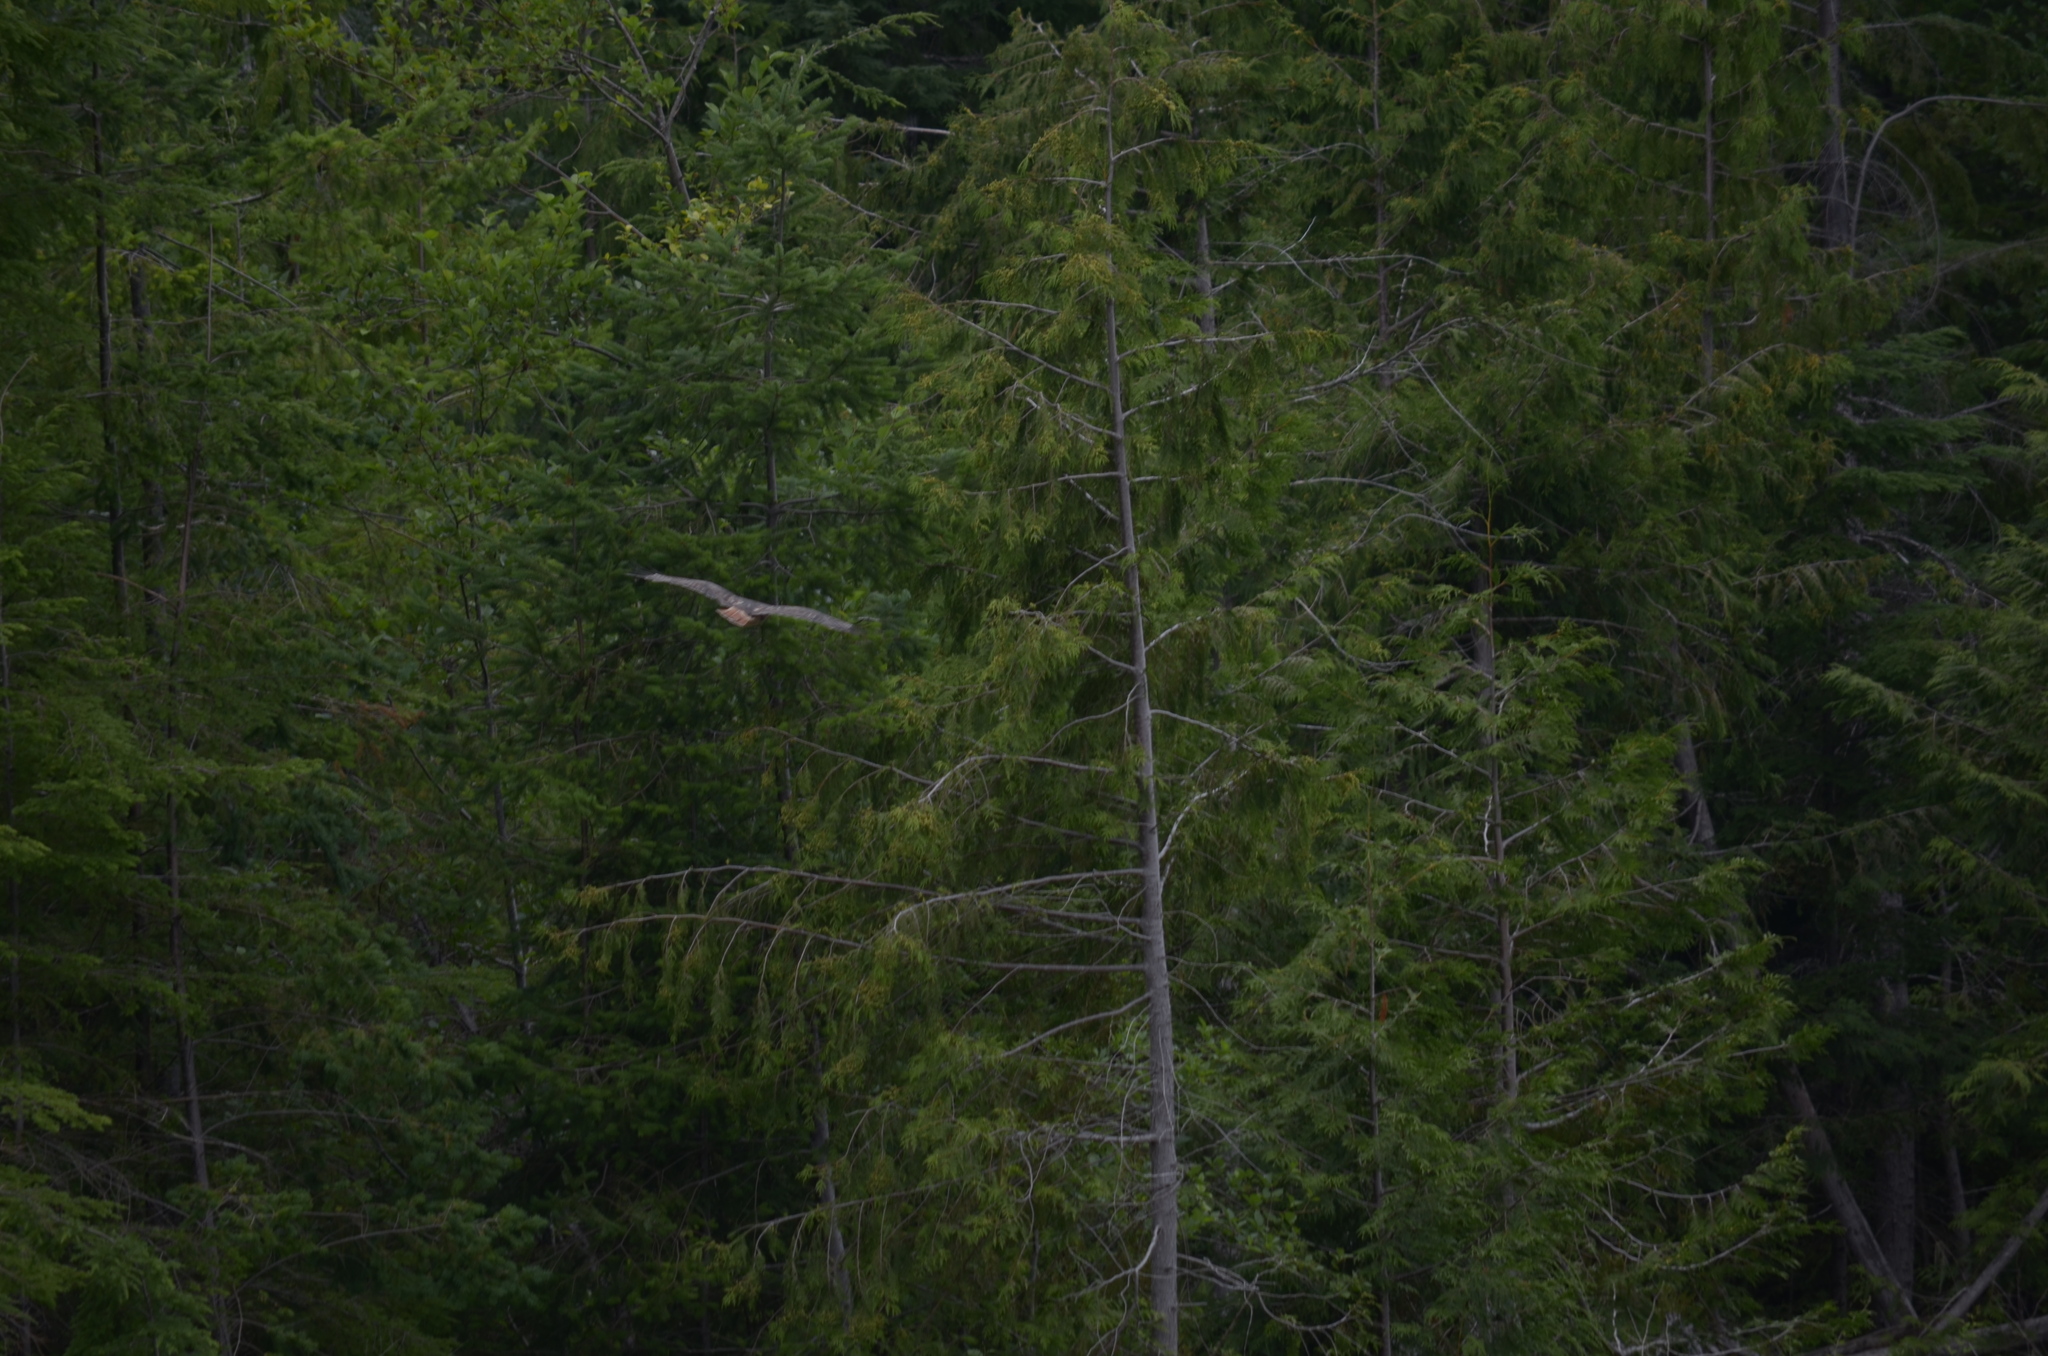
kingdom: Animalia
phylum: Chordata
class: Aves
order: Accipitriformes
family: Accipitridae
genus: Buteo
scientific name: Buteo jamaicensis
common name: Red-tailed hawk
